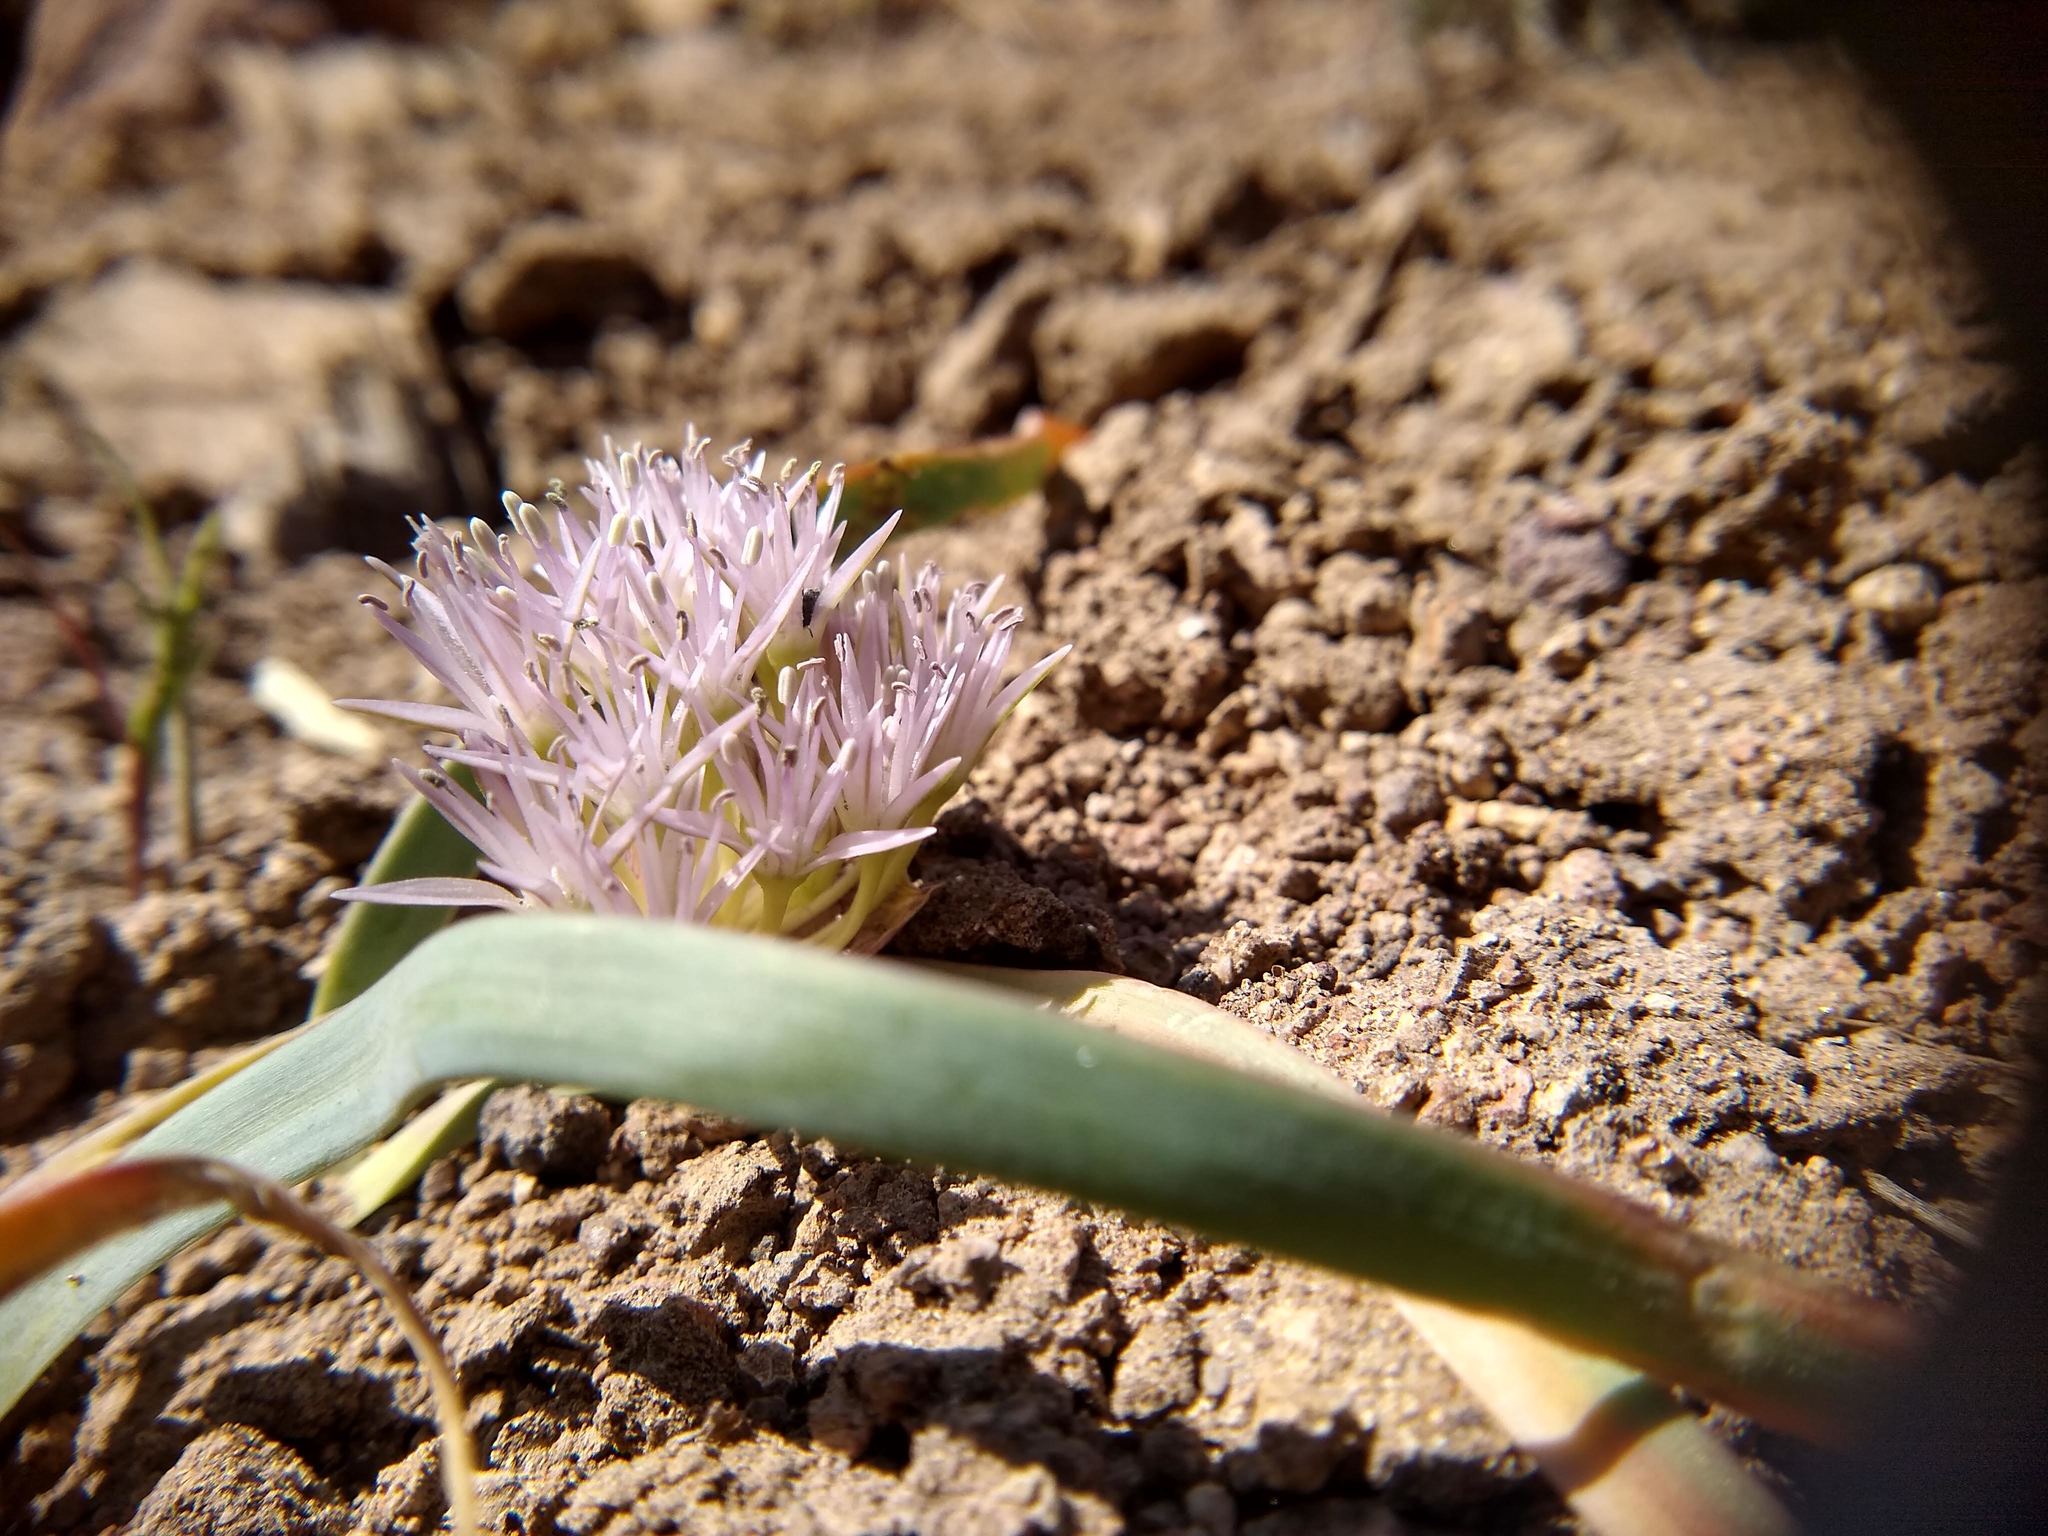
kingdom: Plantae
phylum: Tracheophyta
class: Liliopsida
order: Asparagales
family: Amaryllidaceae
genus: Allium
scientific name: Allium anceps
